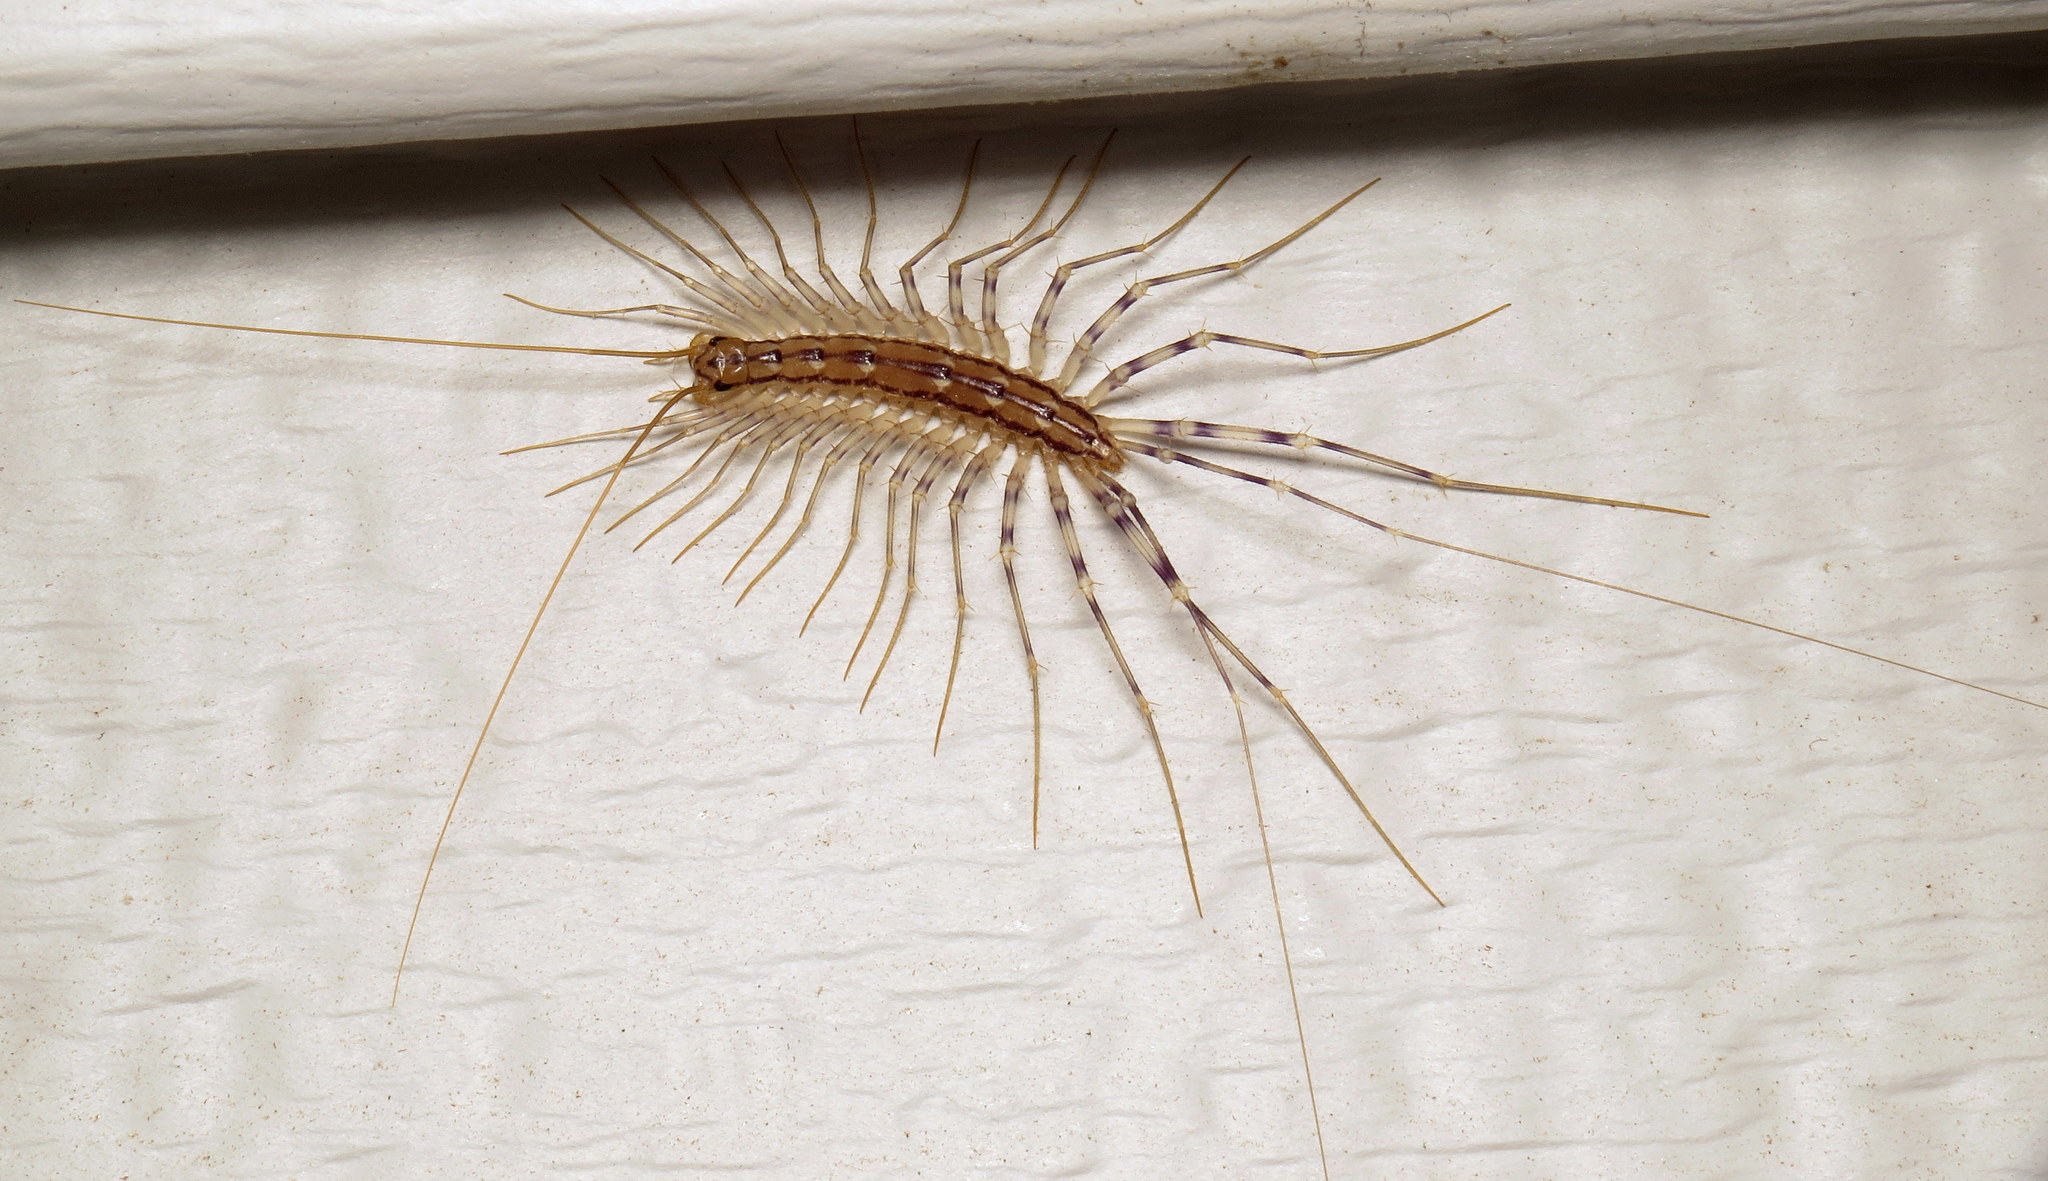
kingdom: Animalia
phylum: Arthropoda
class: Chilopoda
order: Scutigeromorpha
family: Scutigeridae
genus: Scutigera
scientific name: Scutigera coleoptrata
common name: House centipede
